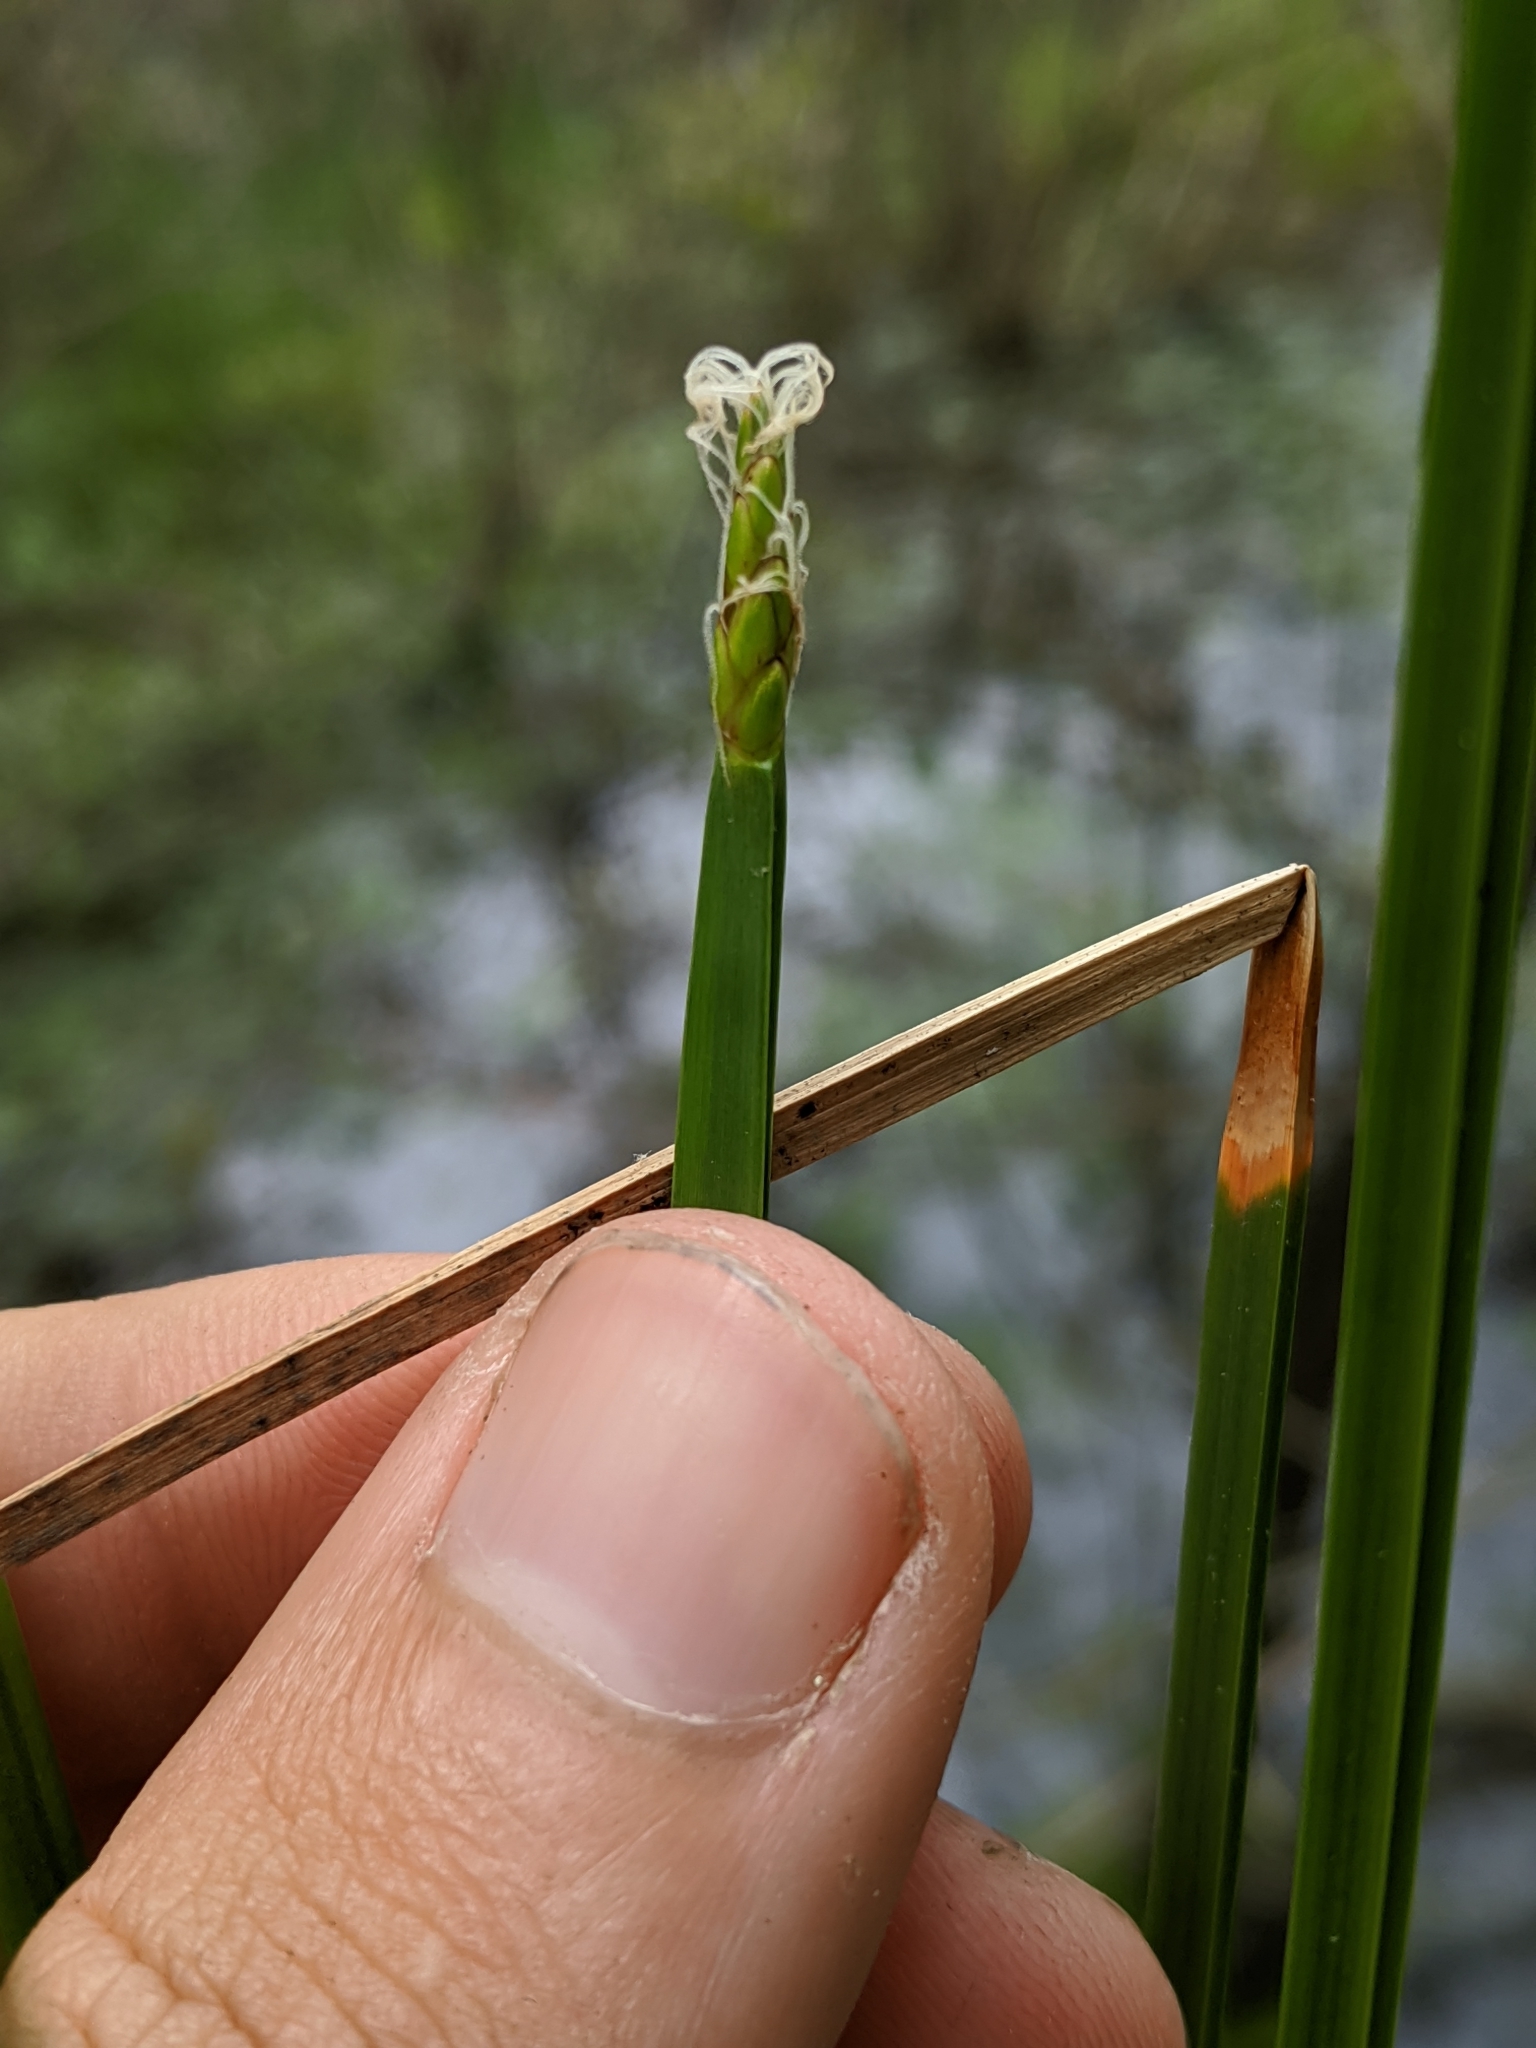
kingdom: Plantae
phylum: Tracheophyta
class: Liliopsida
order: Poales
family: Cyperaceae
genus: Eleocharis
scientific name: Eleocharis quadrangulata
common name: Square-stem spike-rush
